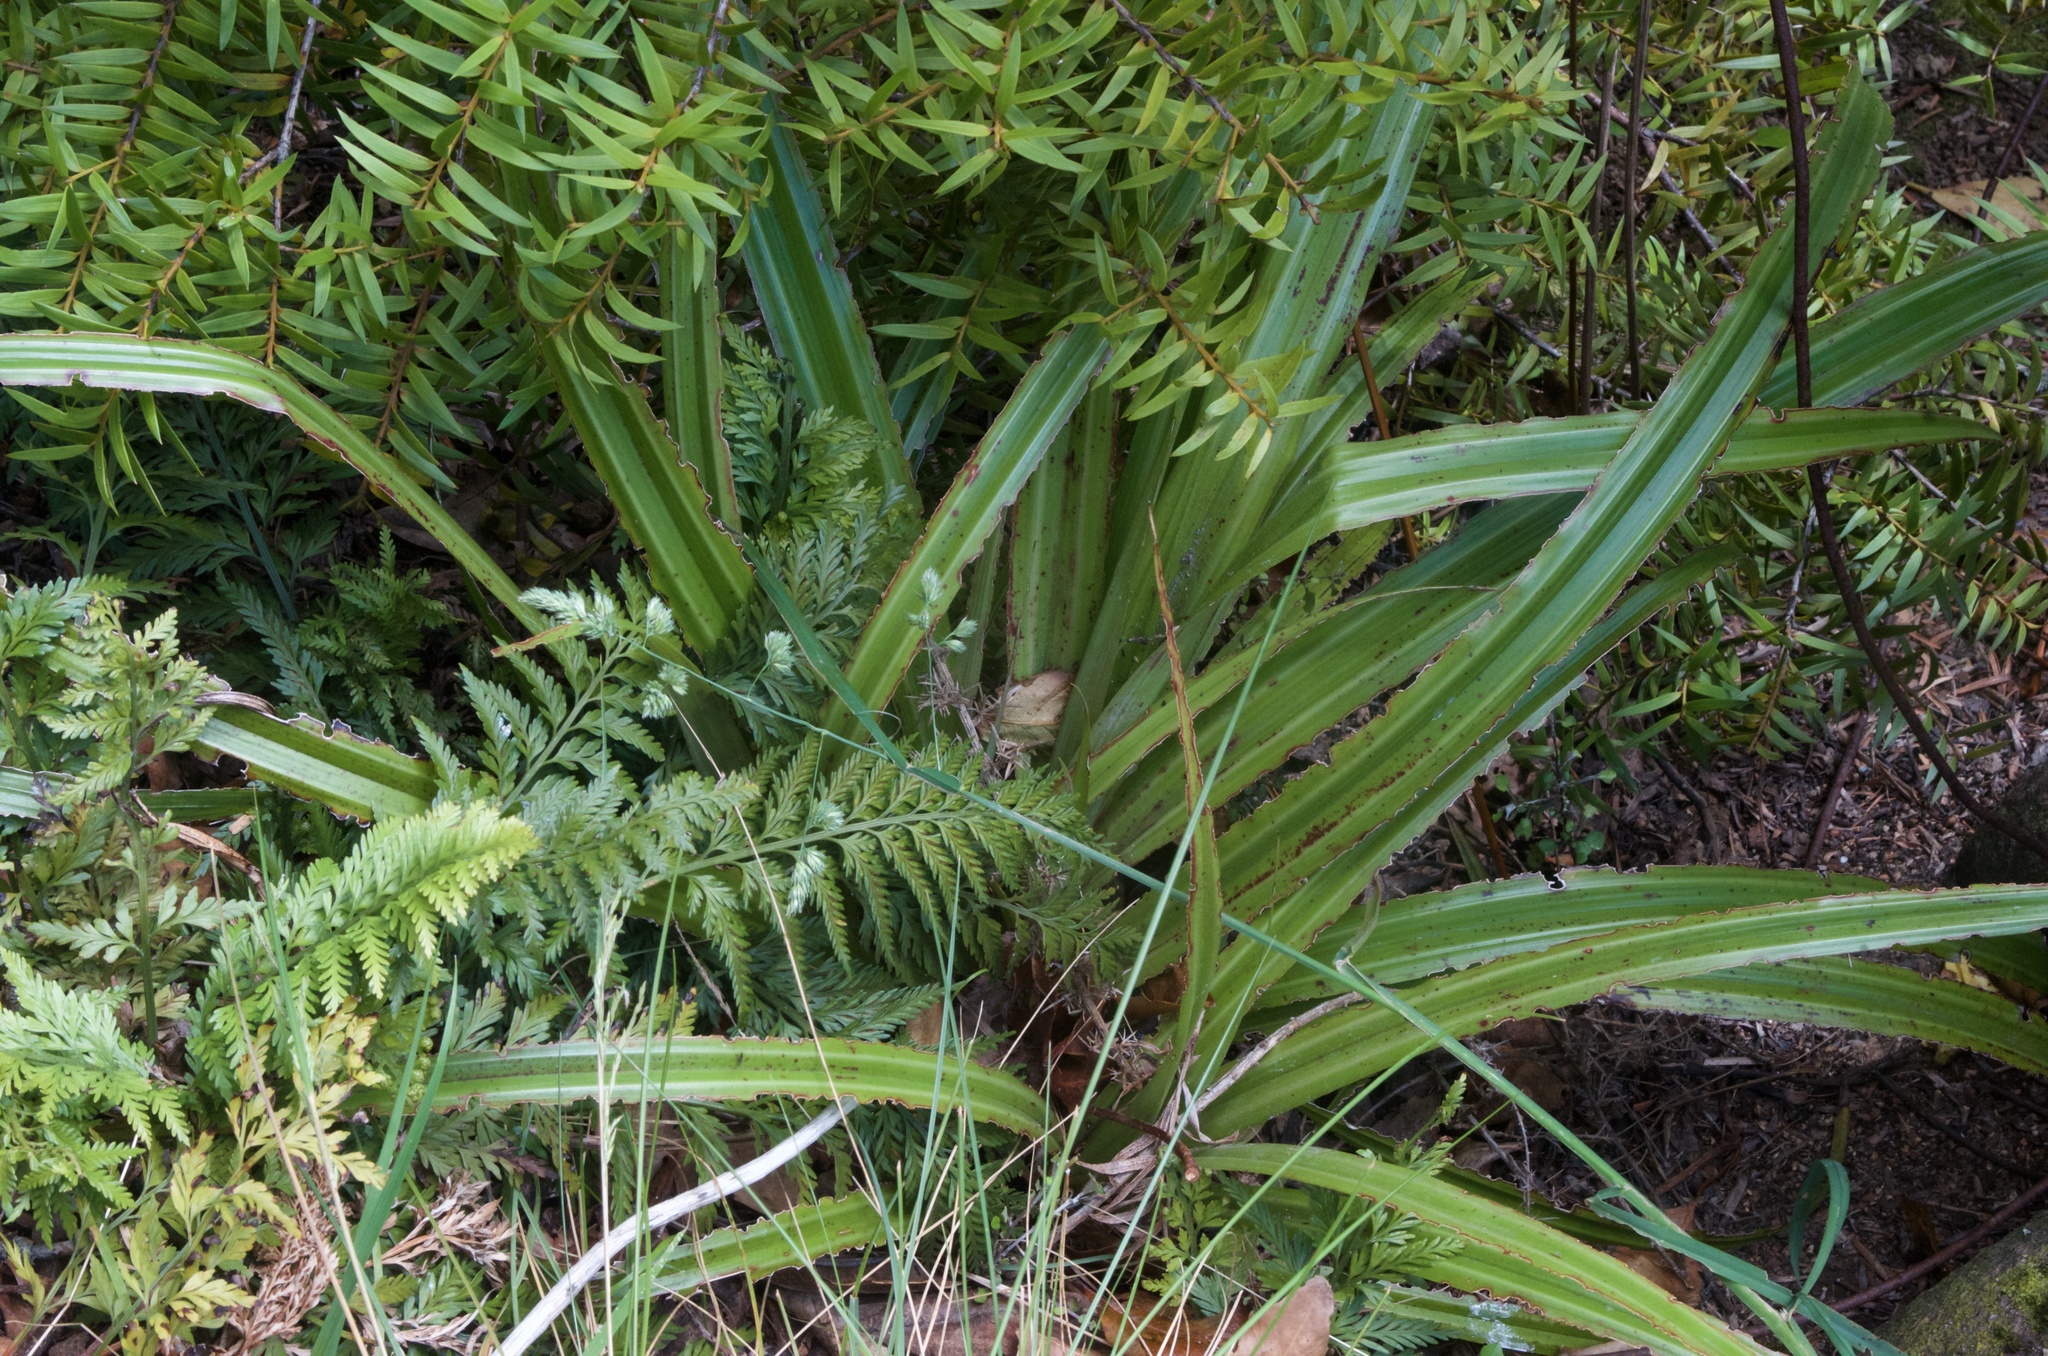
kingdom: Plantae
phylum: Tracheophyta
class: Liliopsida
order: Asparagales
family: Asteliaceae
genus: Astelia
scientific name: Astelia grandis
